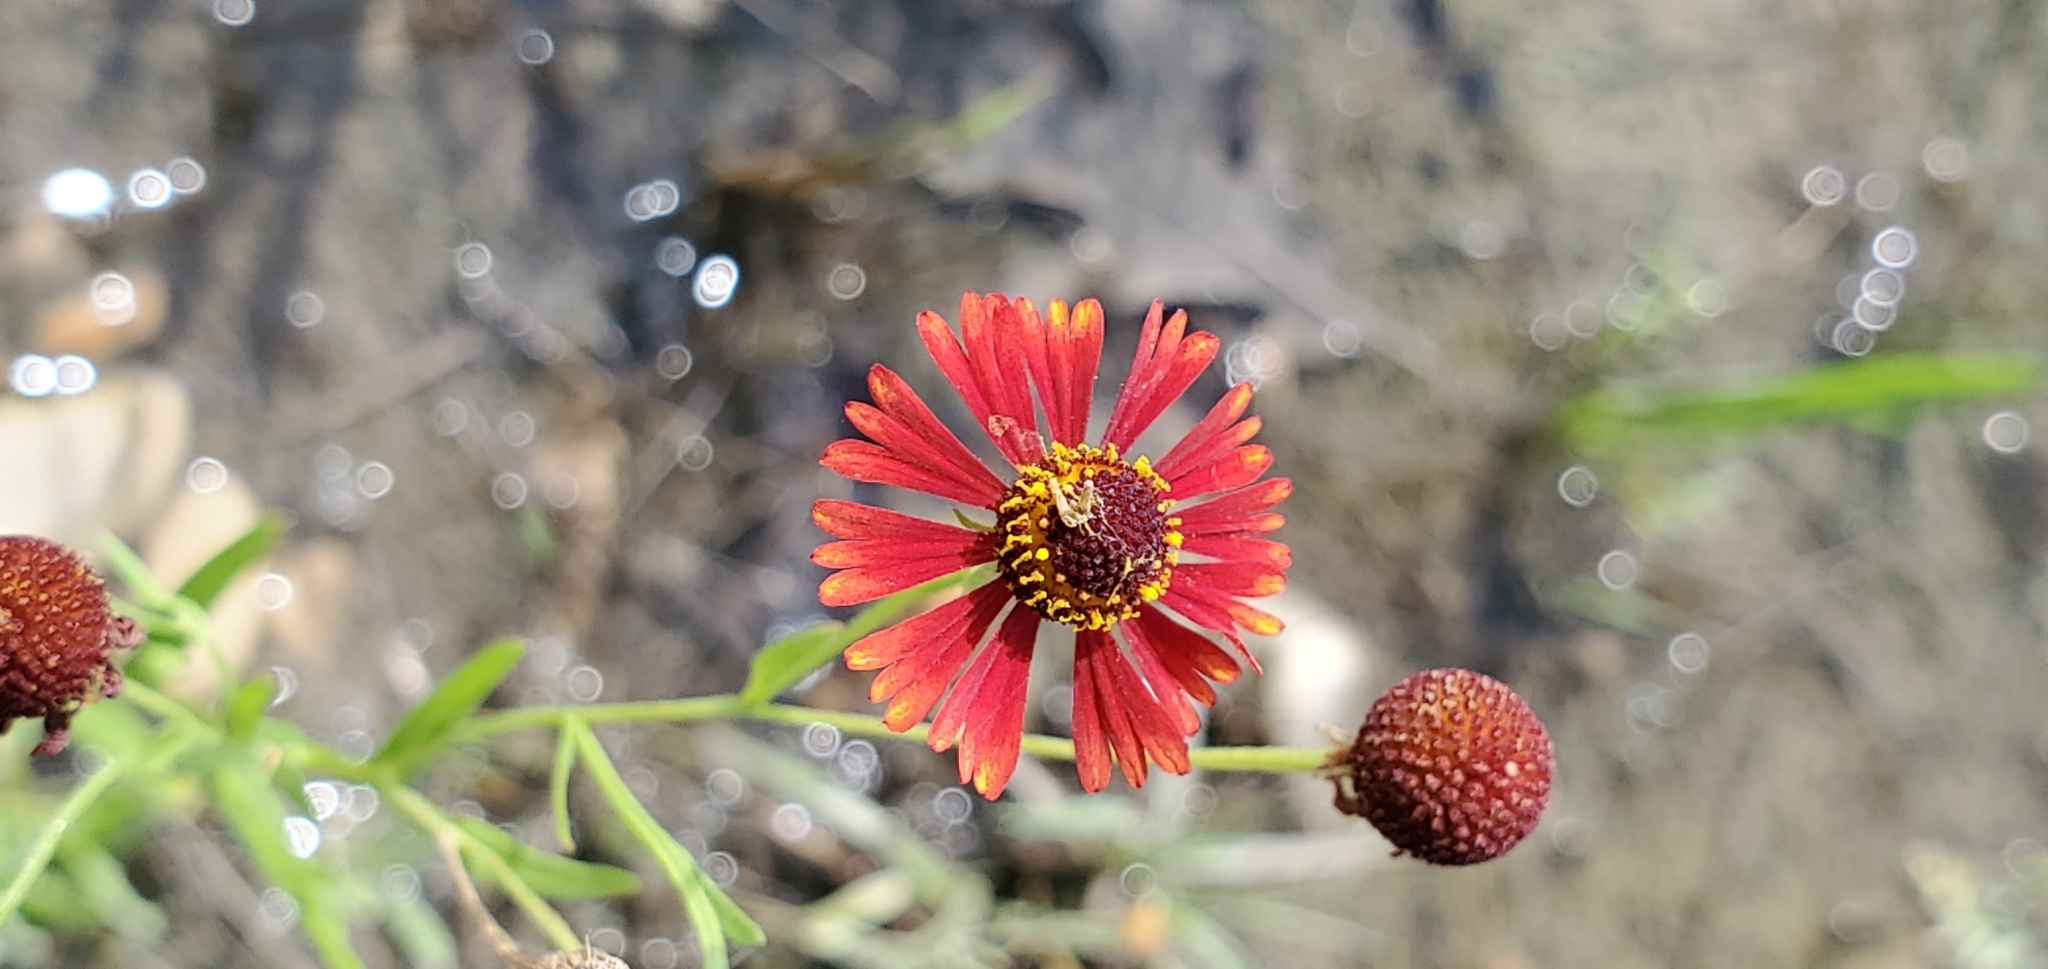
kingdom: Plantae
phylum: Tracheophyta
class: Magnoliopsida
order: Asterales
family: Asteraceae
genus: Gaillardia
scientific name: Gaillardia amblyodon
